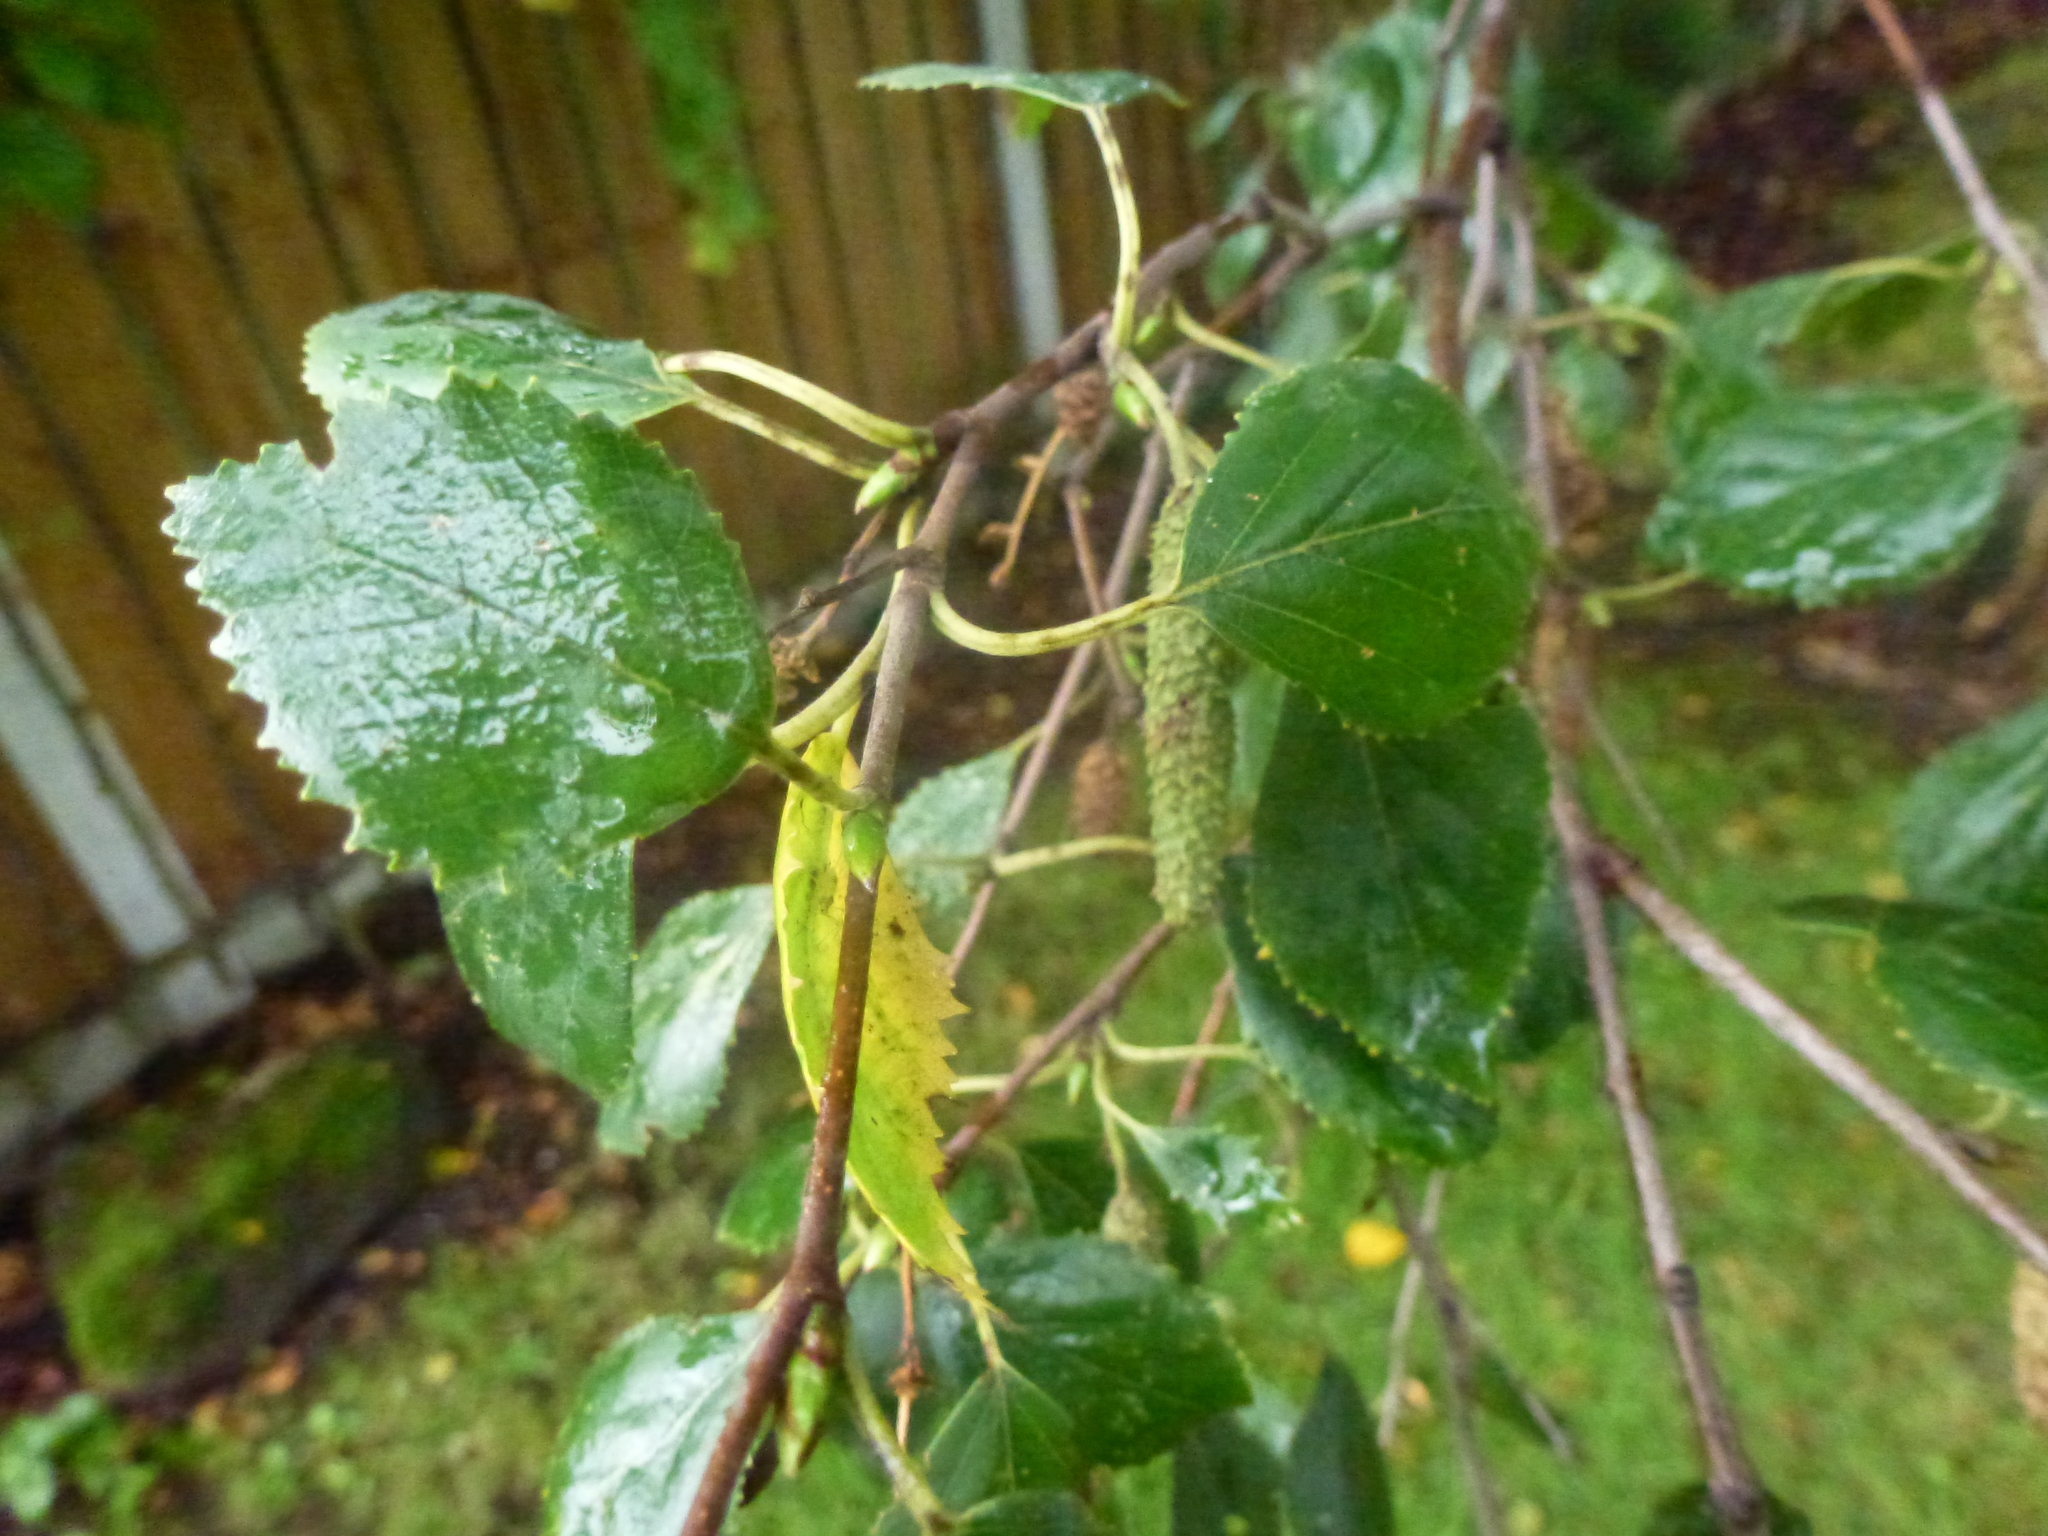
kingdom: Plantae
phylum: Tracheophyta
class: Magnoliopsida
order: Fagales
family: Betulaceae
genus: Betula
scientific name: Betula pendula
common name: Silver birch
